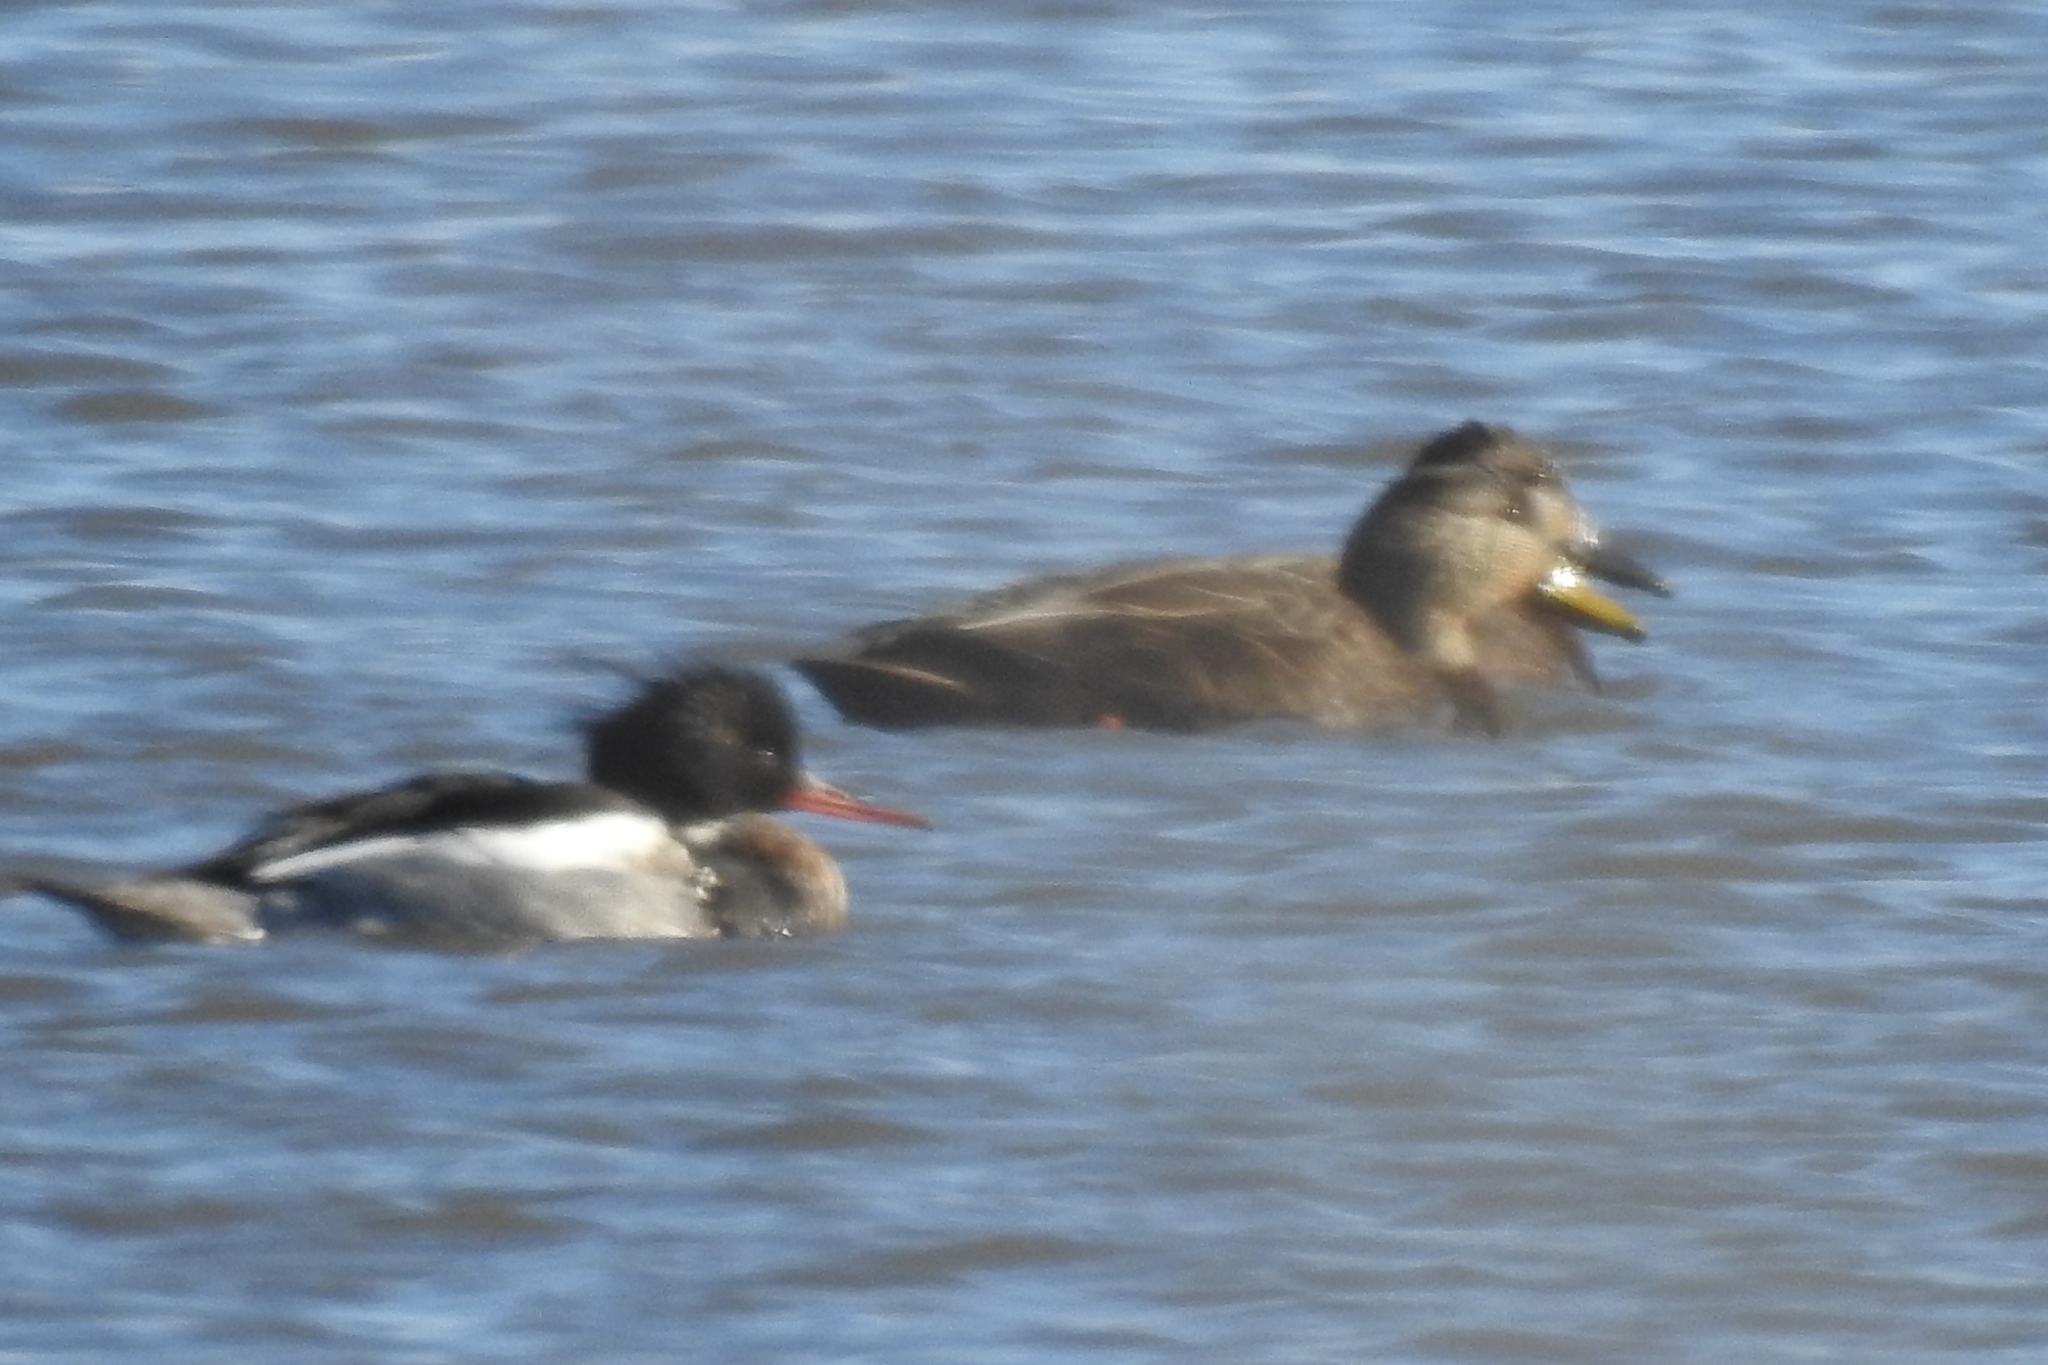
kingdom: Animalia
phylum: Chordata
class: Aves
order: Anseriformes
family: Anatidae
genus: Mergus
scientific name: Mergus serrator
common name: Red-breasted merganser
